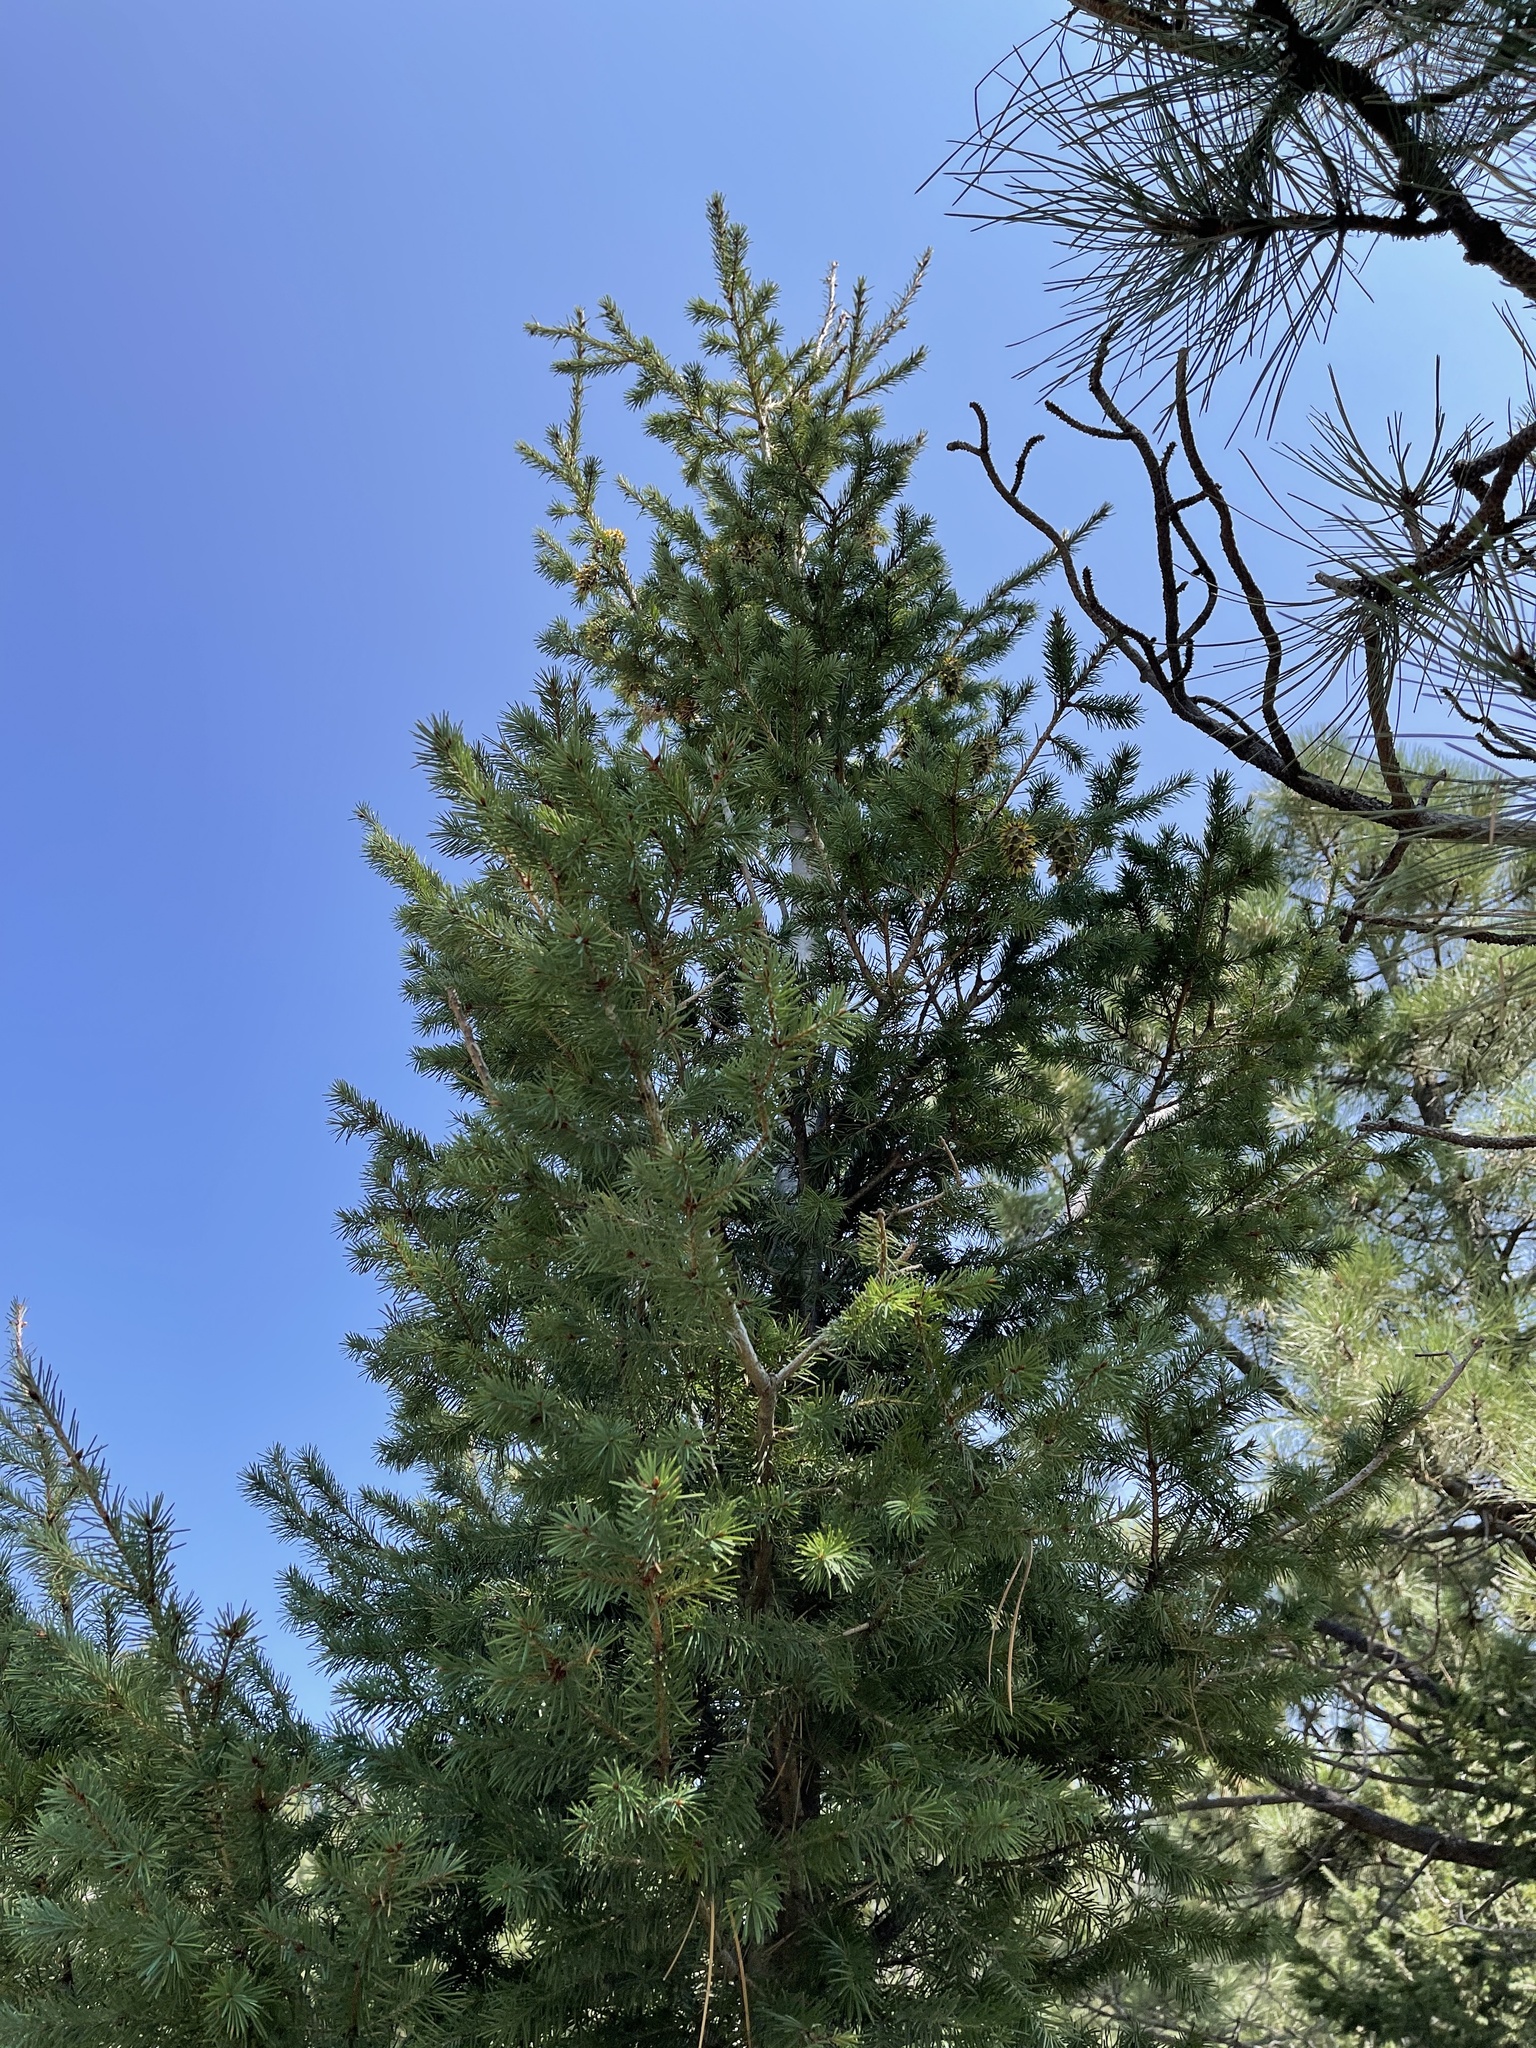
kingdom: Plantae
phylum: Tracheophyta
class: Pinopsida
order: Pinales
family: Pinaceae
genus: Pseudotsuga
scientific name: Pseudotsuga menziesii
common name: Douglas fir
